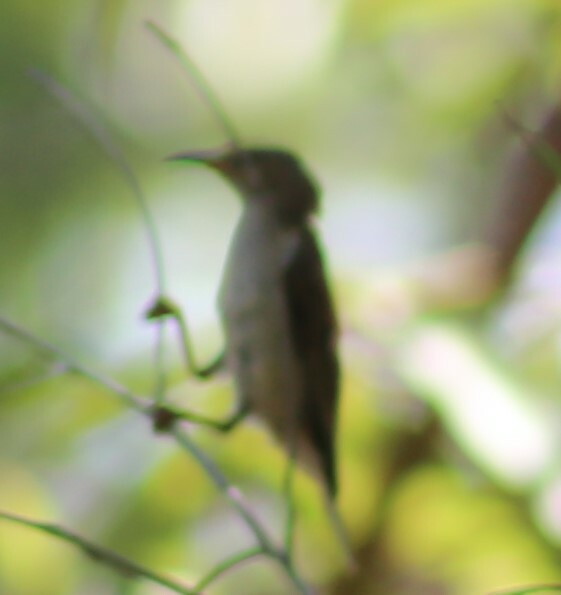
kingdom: Animalia
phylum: Chordata
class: Aves
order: Passeriformes
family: Meliphagidae
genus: Myzomela
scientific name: Myzomela sanguinolenta
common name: Scarlet myzomela
